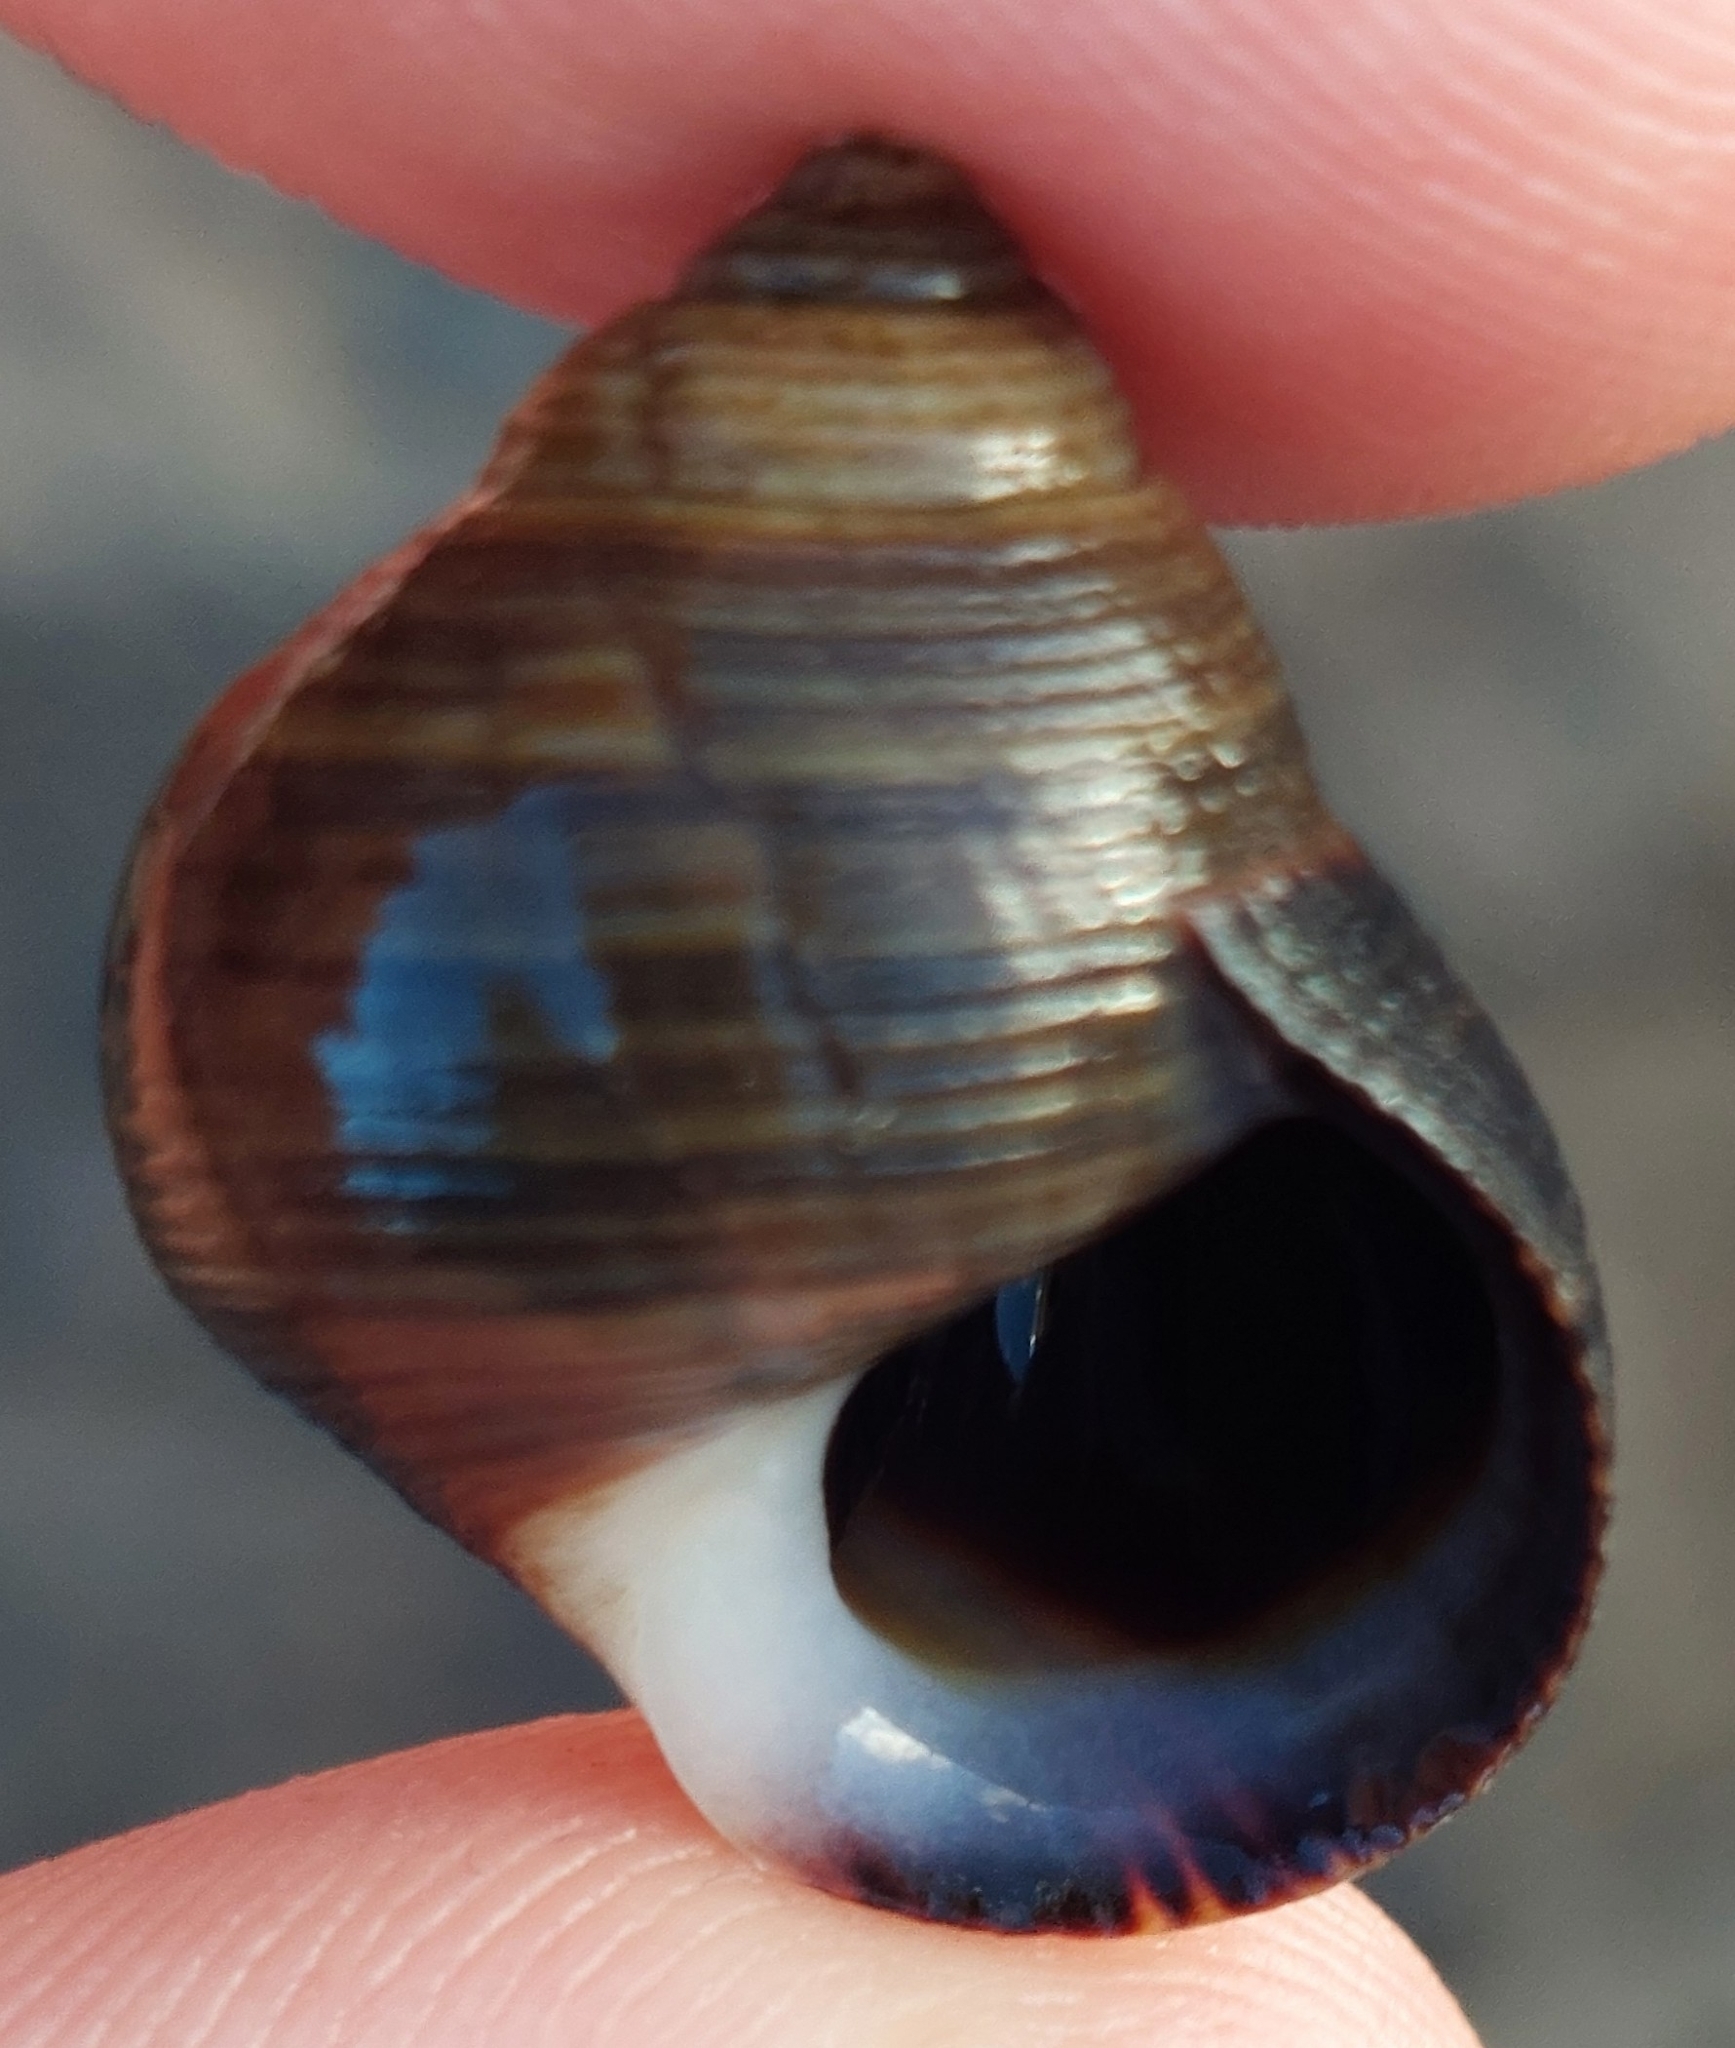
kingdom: Animalia
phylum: Mollusca
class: Gastropoda
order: Littorinimorpha
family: Littorinidae
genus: Littorina
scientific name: Littorina littorea
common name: Common periwinkle
